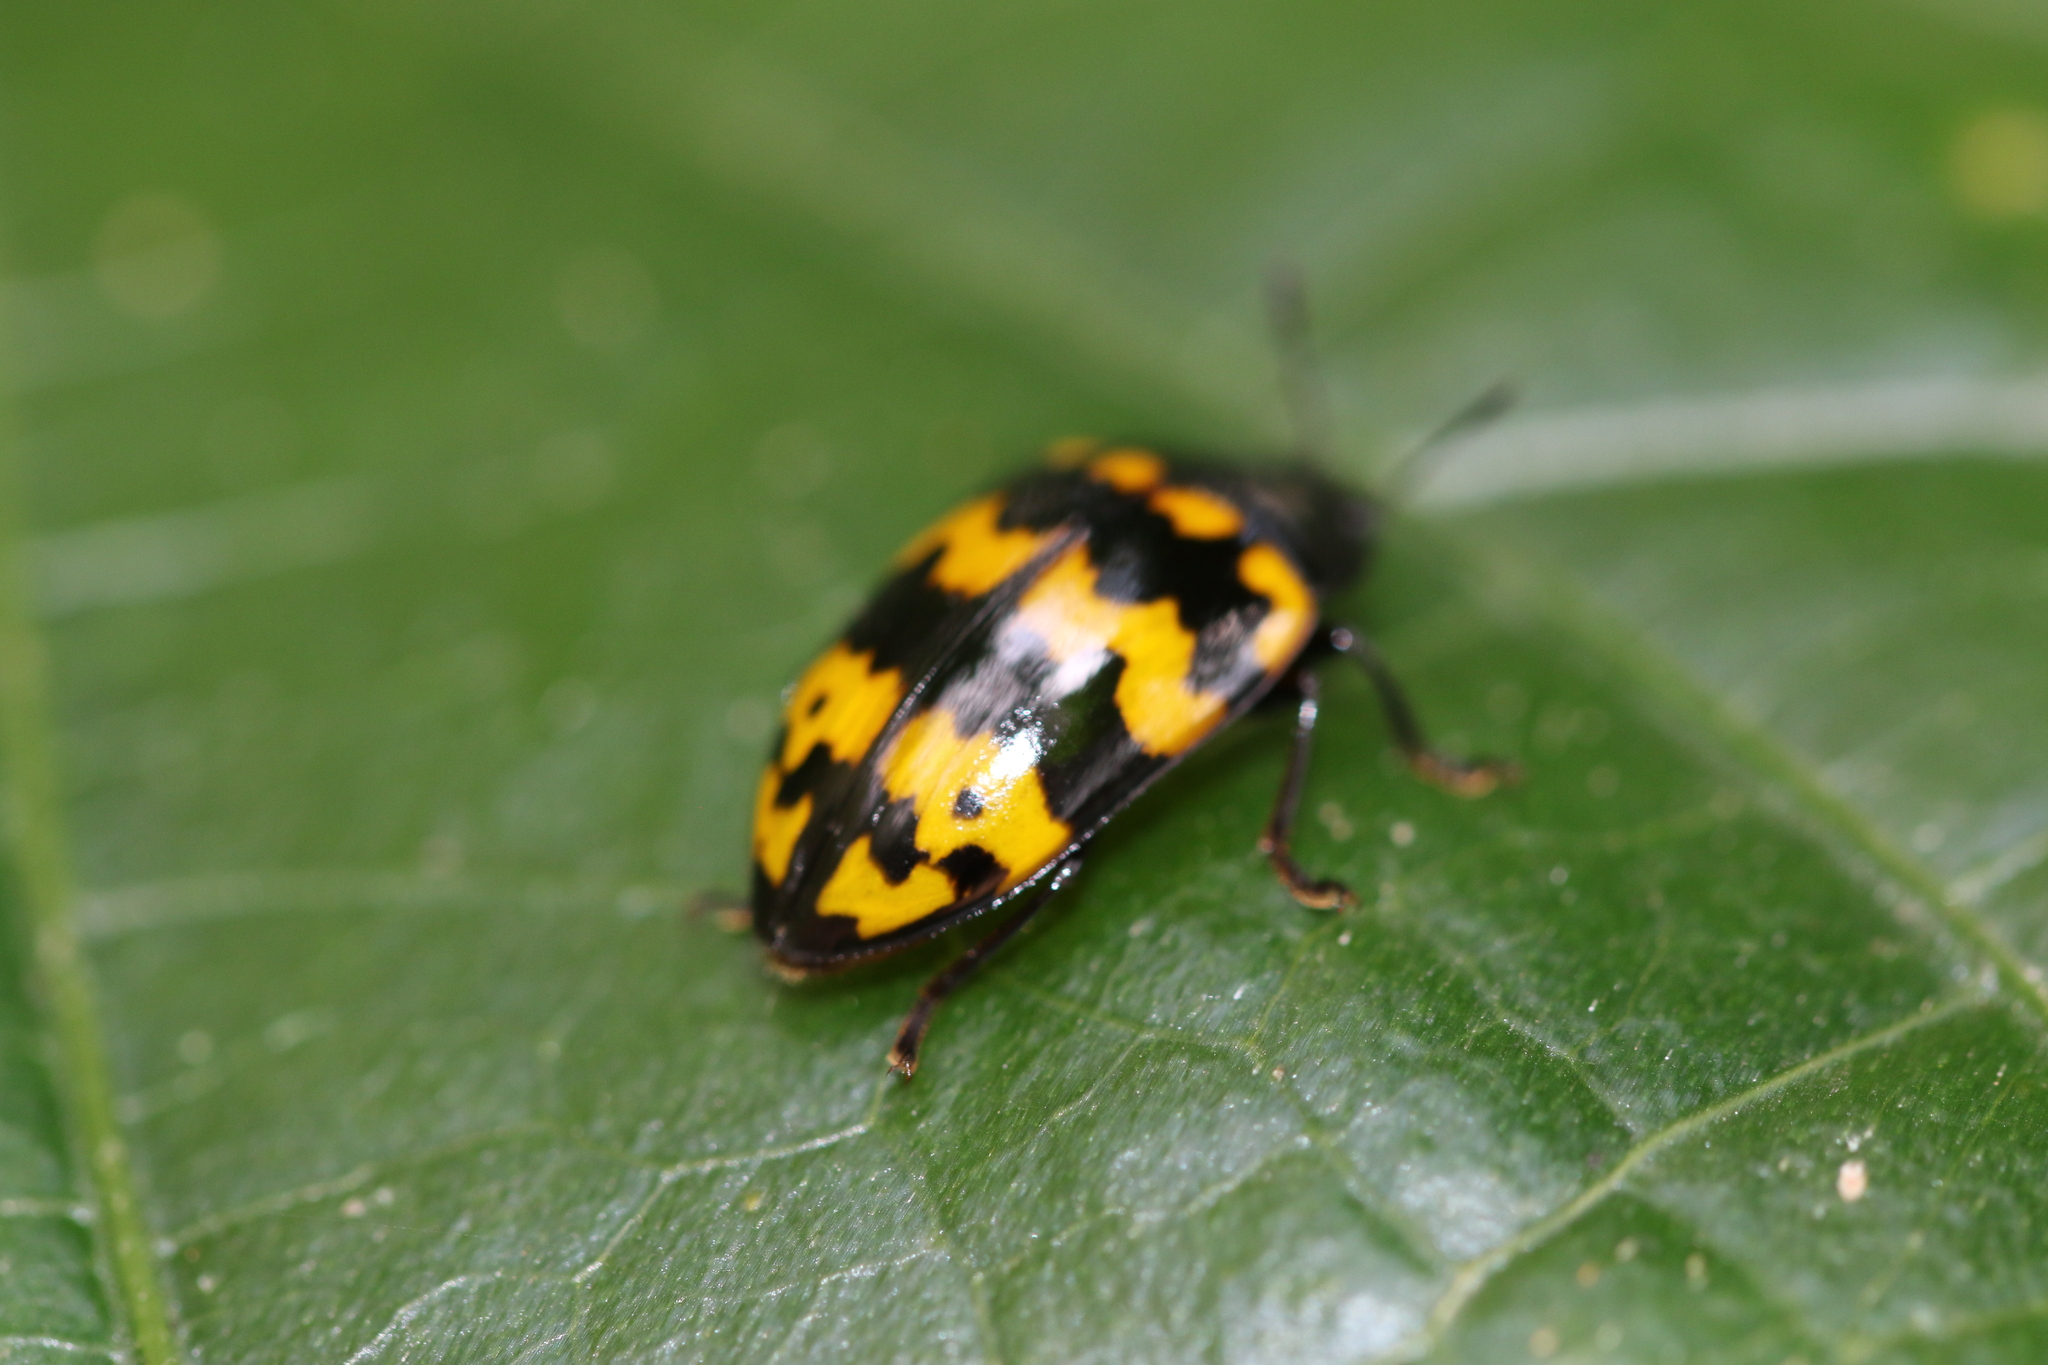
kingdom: Animalia
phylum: Arthropoda
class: Insecta
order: Coleoptera
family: Erotylidae
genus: Iphiclus
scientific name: Iphiclus
